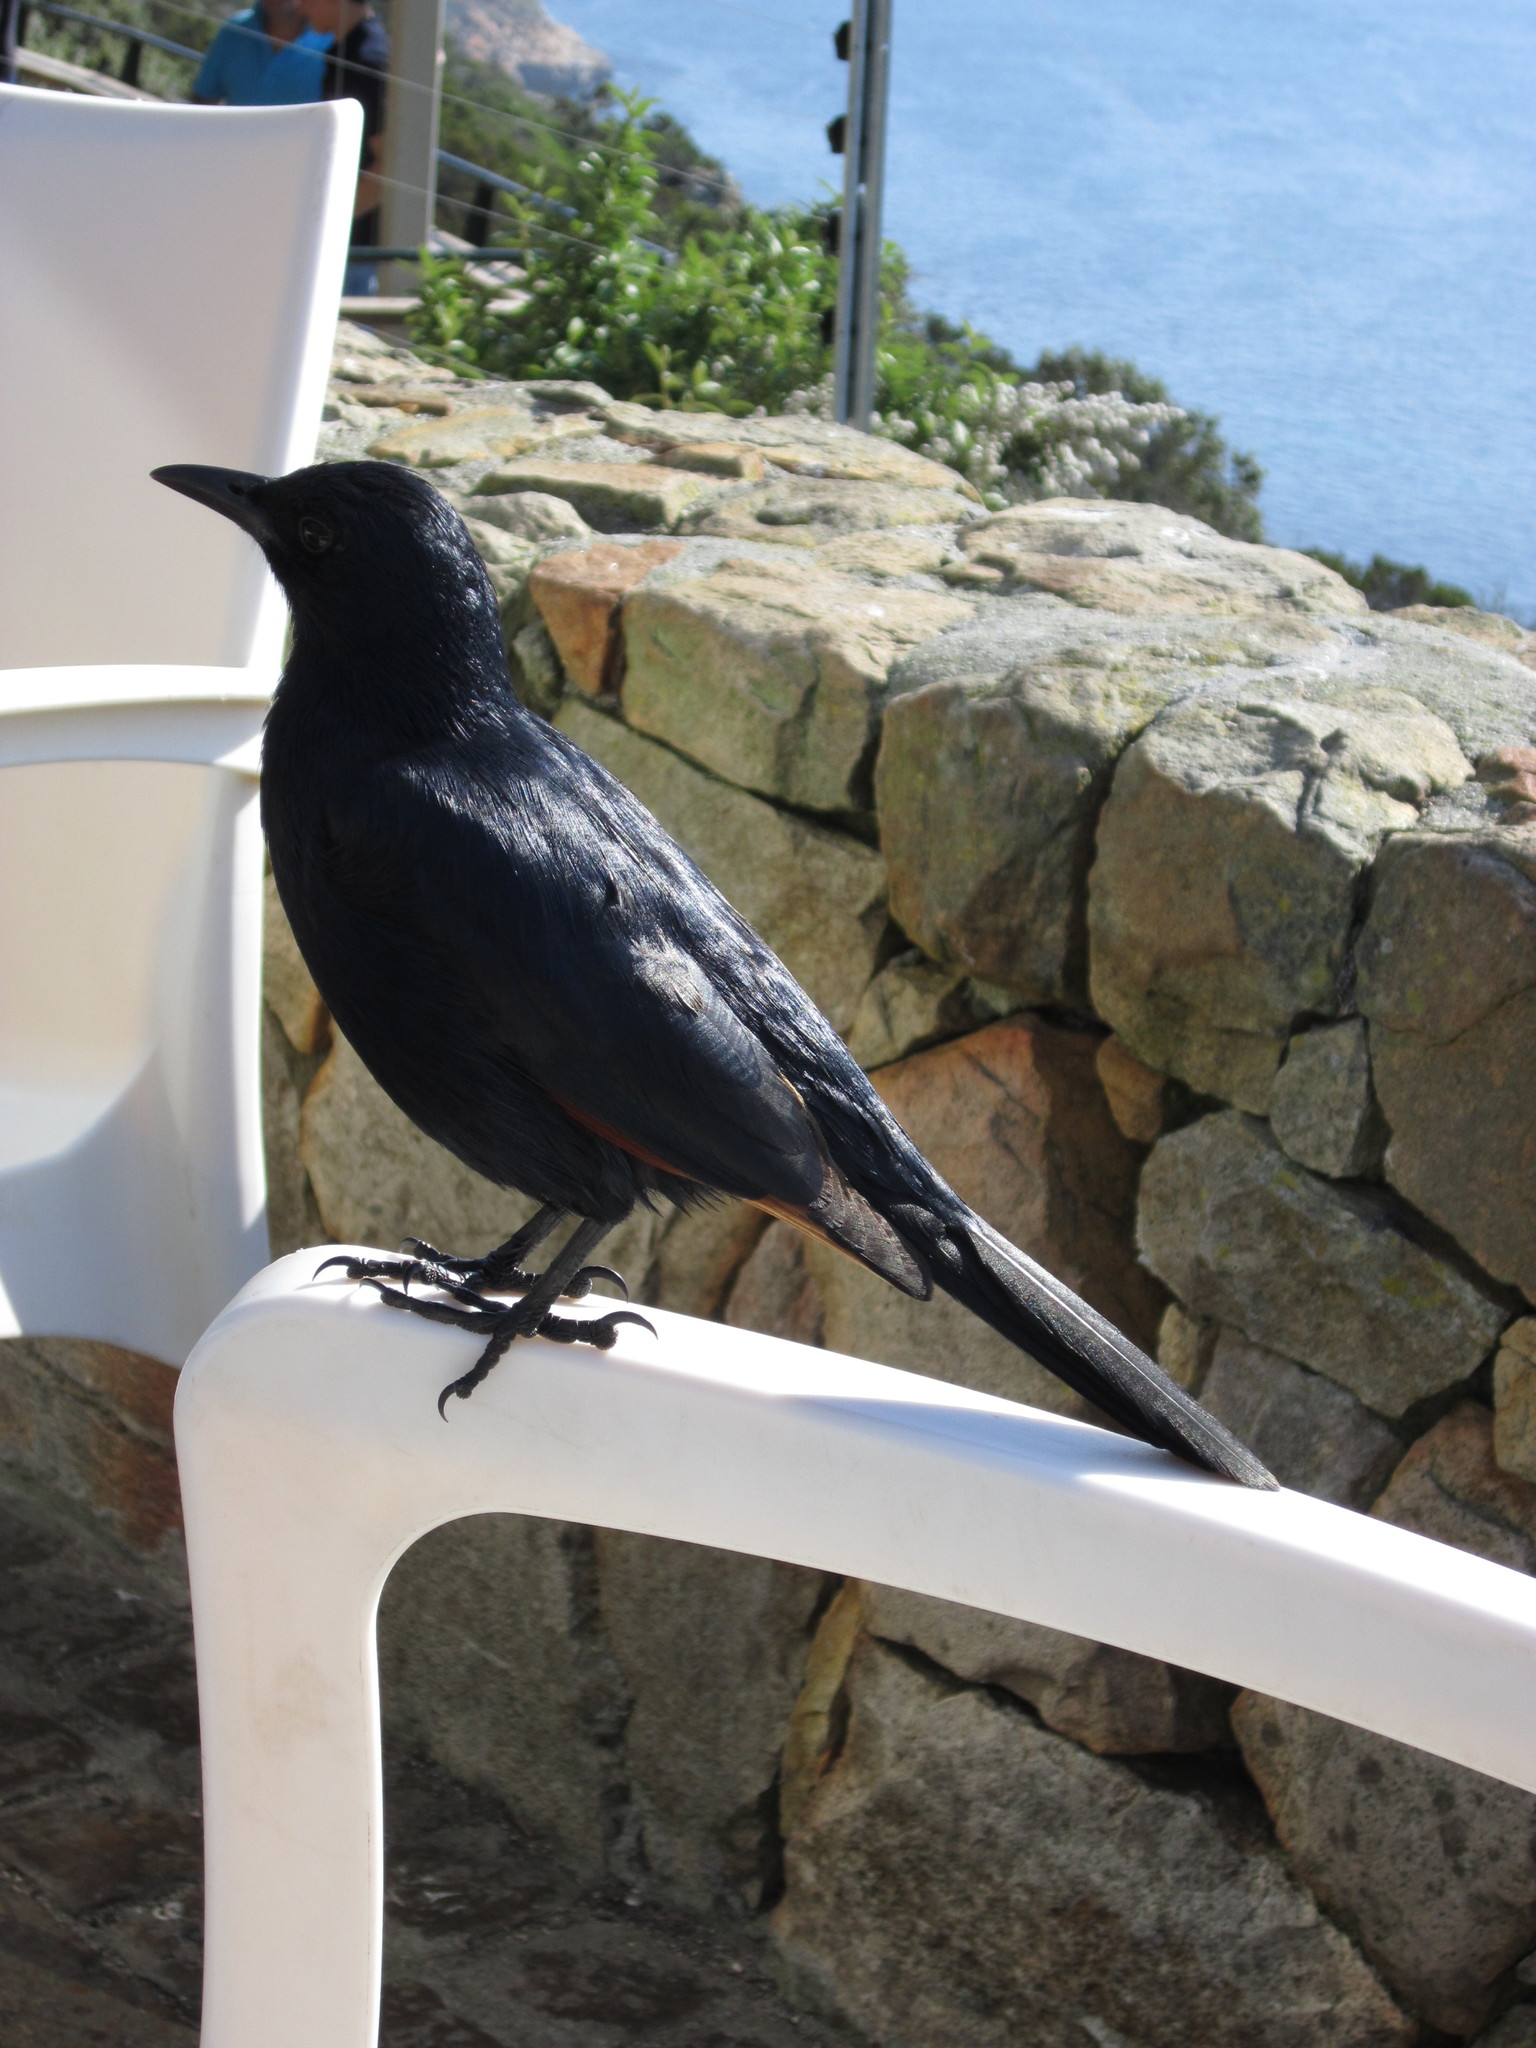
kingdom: Animalia
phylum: Chordata
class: Aves
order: Passeriformes
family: Sturnidae
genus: Onychognathus
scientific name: Onychognathus morio
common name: Red-winged starling
